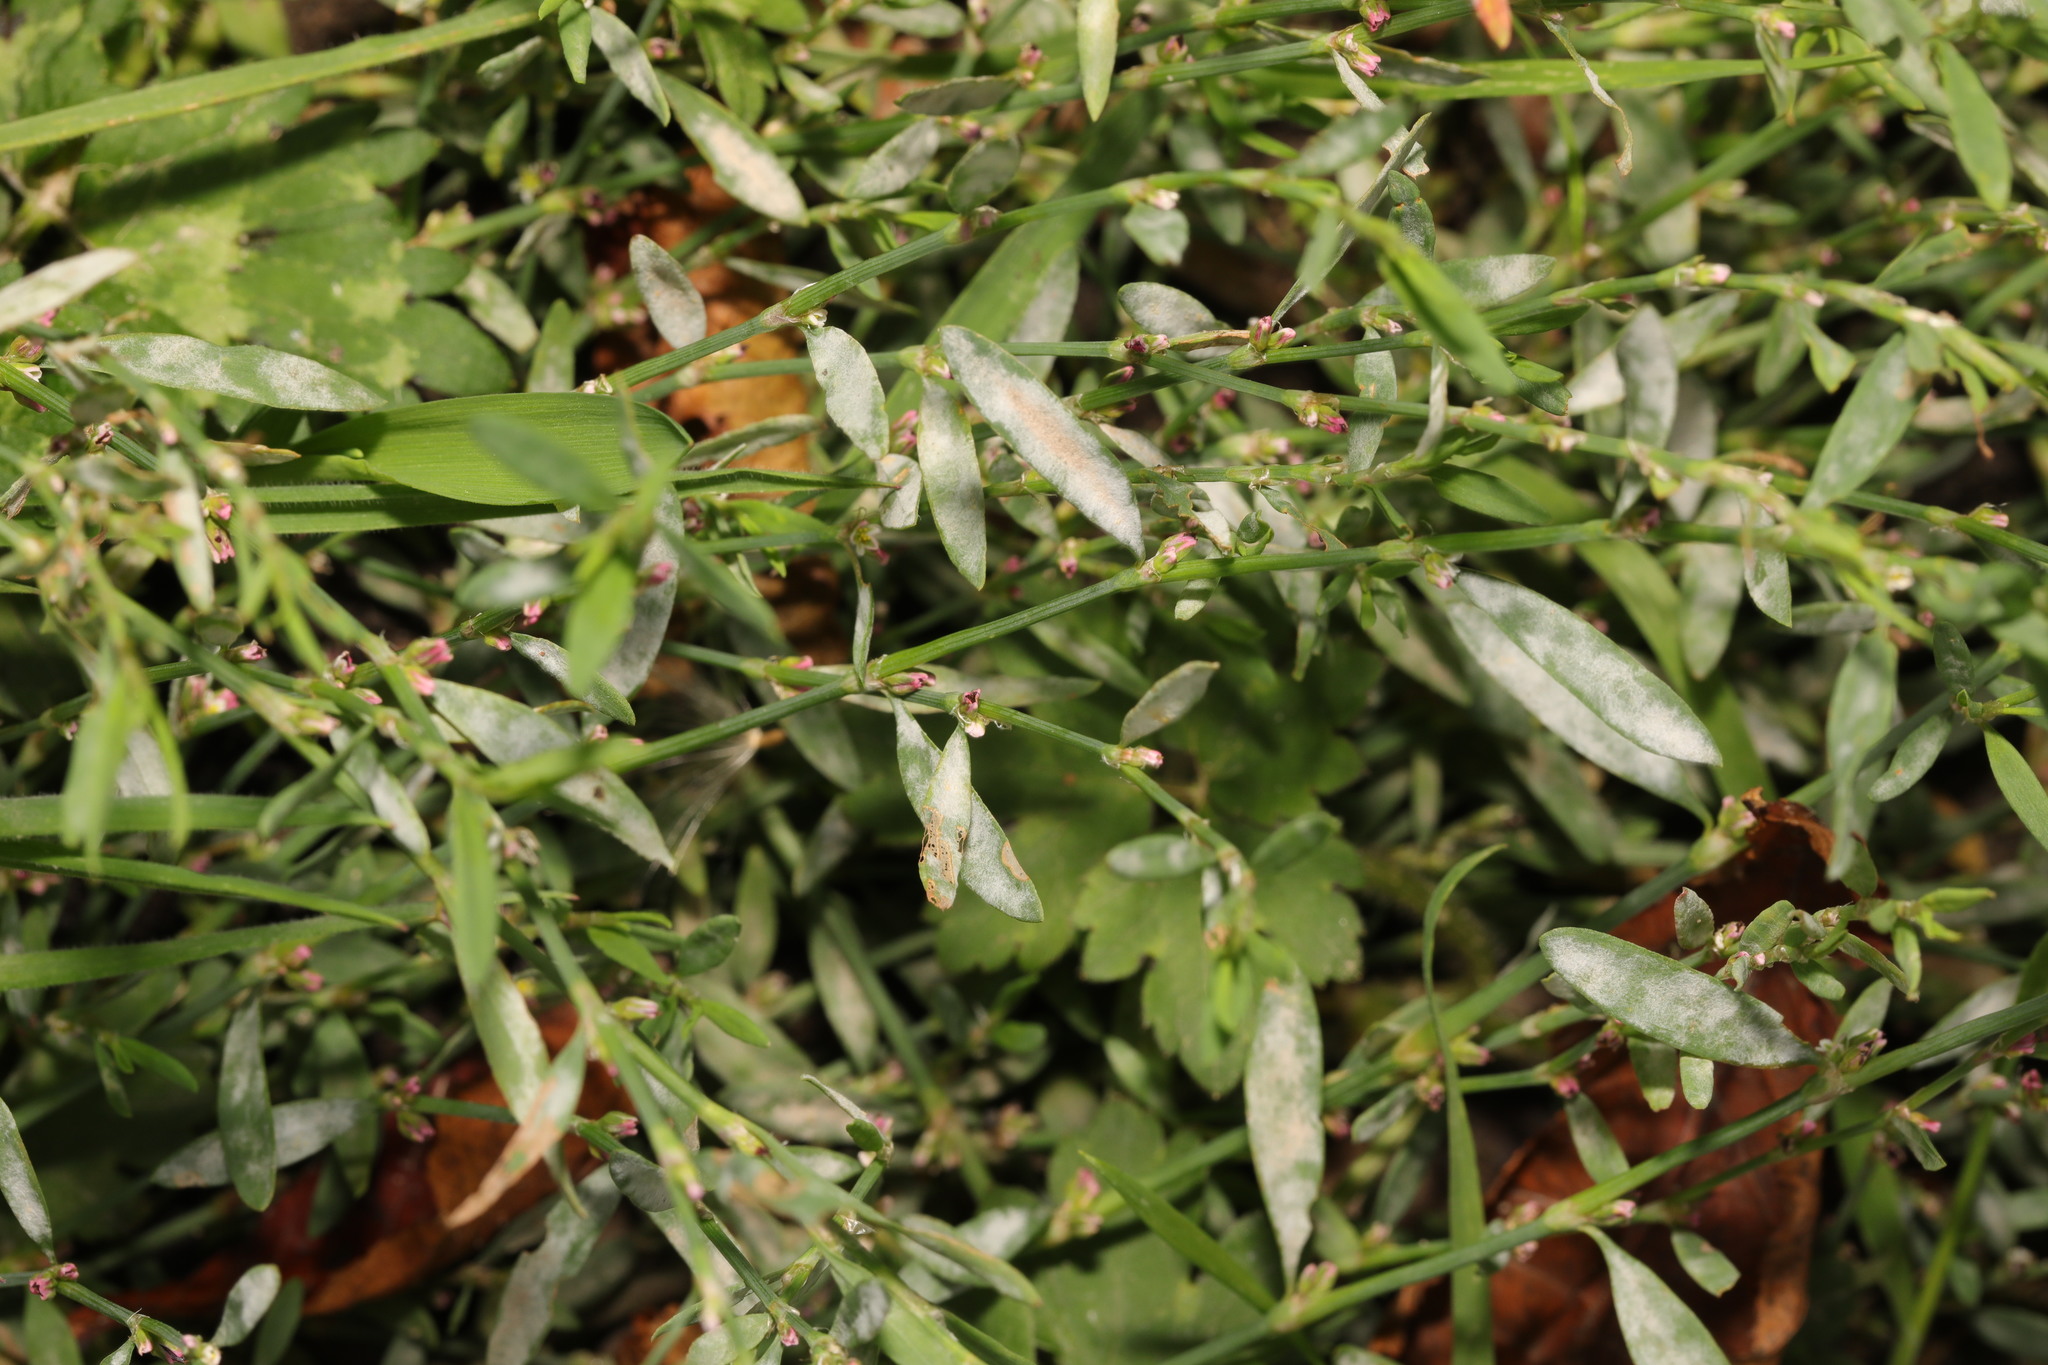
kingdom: Fungi
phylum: Ascomycota
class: Leotiomycetes
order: Helotiales
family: Erysiphaceae
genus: Erysiphe
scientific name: Erysiphe polygoni
